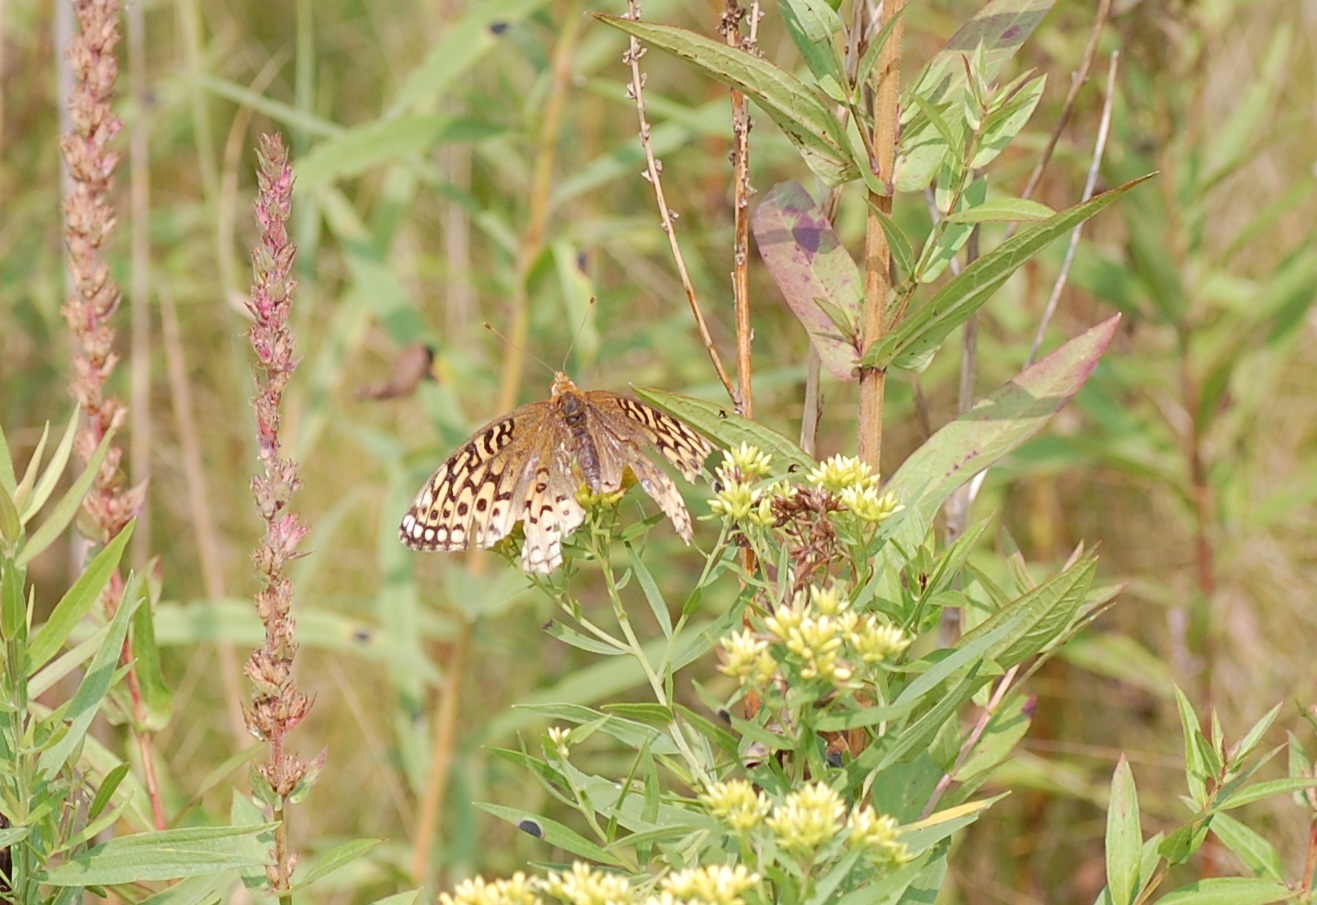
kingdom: Animalia
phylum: Arthropoda
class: Insecta
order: Lepidoptera
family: Nymphalidae
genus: Speyeria
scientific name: Speyeria cybele
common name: Great spangled fritillary
